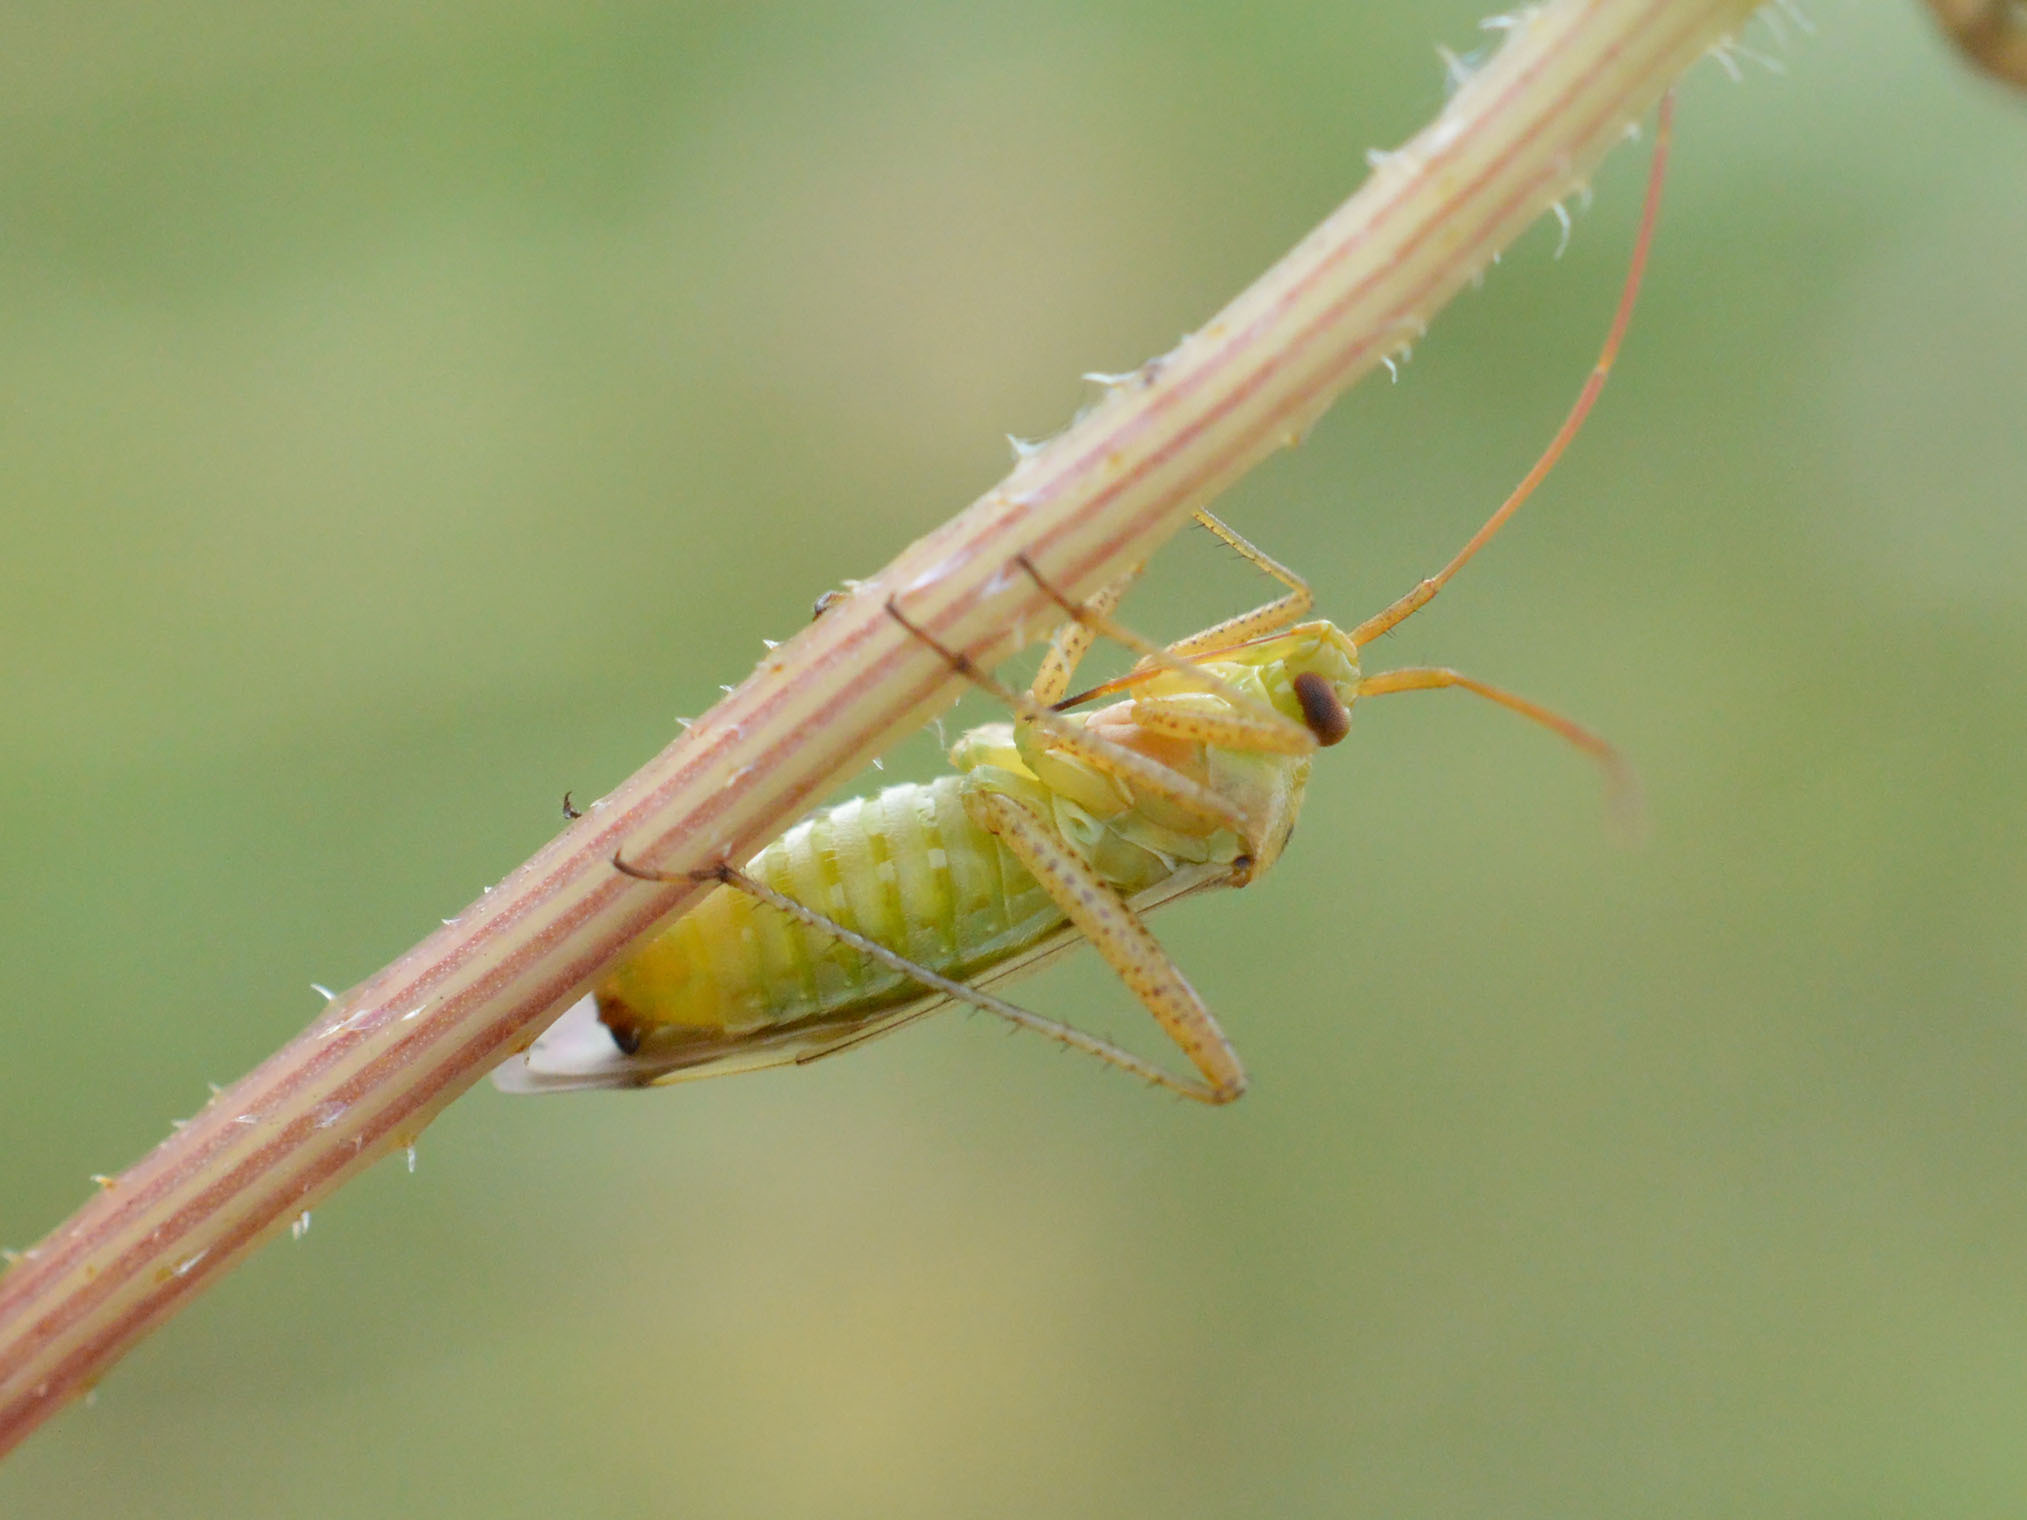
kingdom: Animalia
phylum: Arthropoda
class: Insecta
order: Hemiptera
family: Miridae
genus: Adelphocoris
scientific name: Adelphocoris lineolatus
